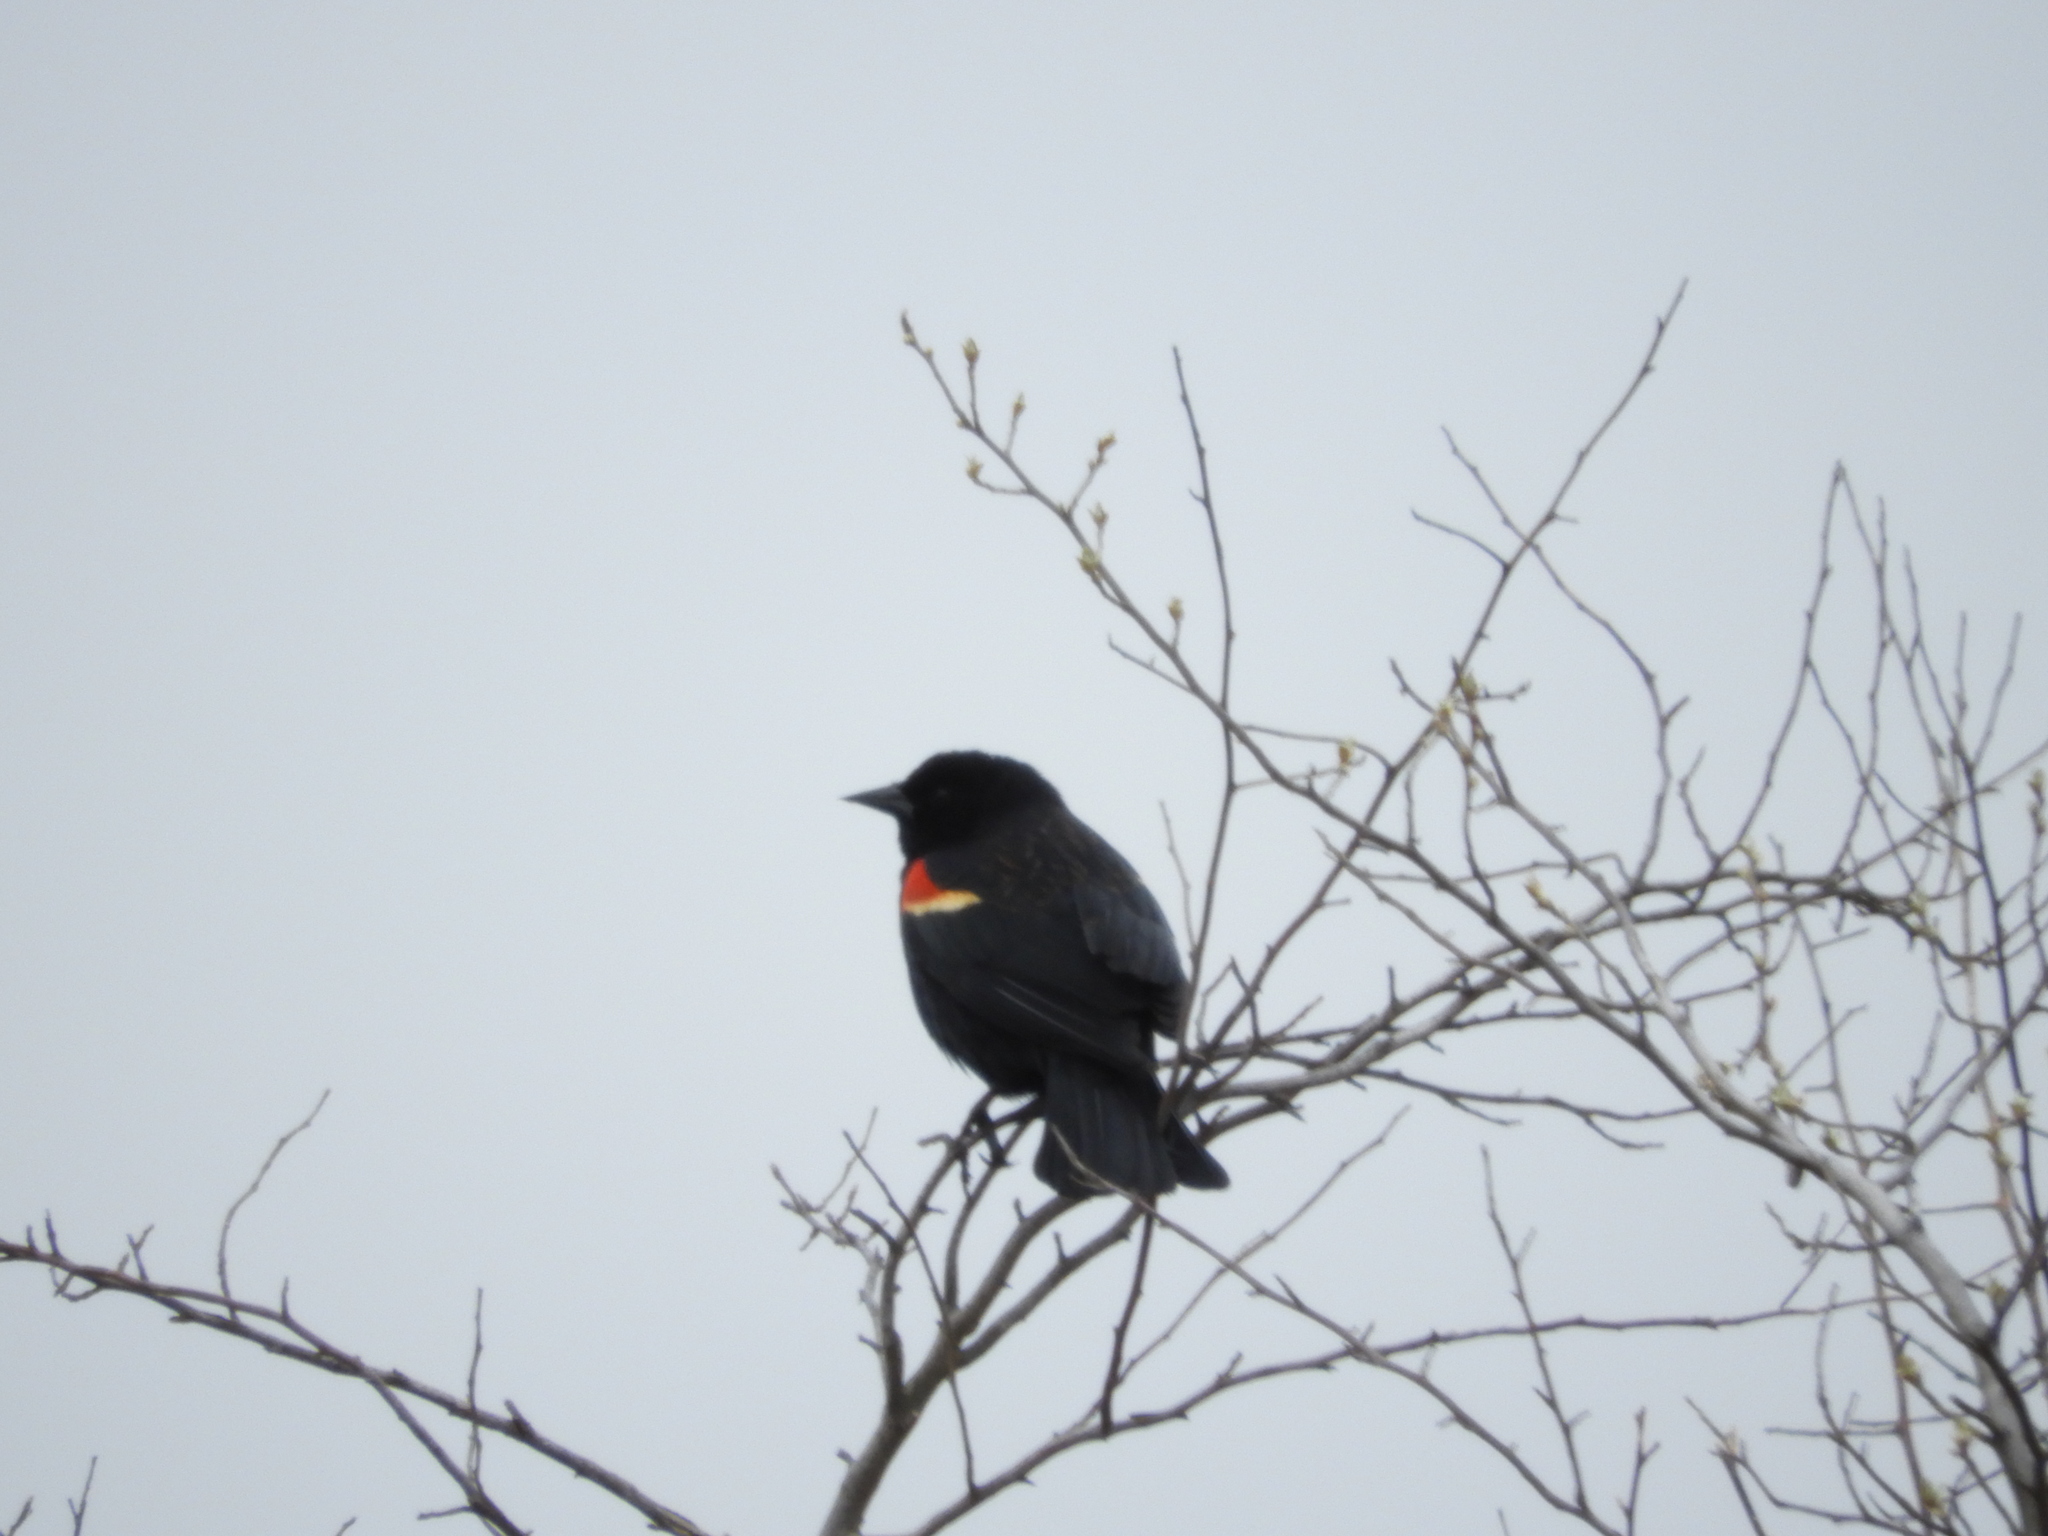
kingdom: Animalia
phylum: Chordata
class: Aves
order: Passeriformes
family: Icteridae
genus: Agelaius
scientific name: Agelaius phoeniceus
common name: Red-winged blackbird
